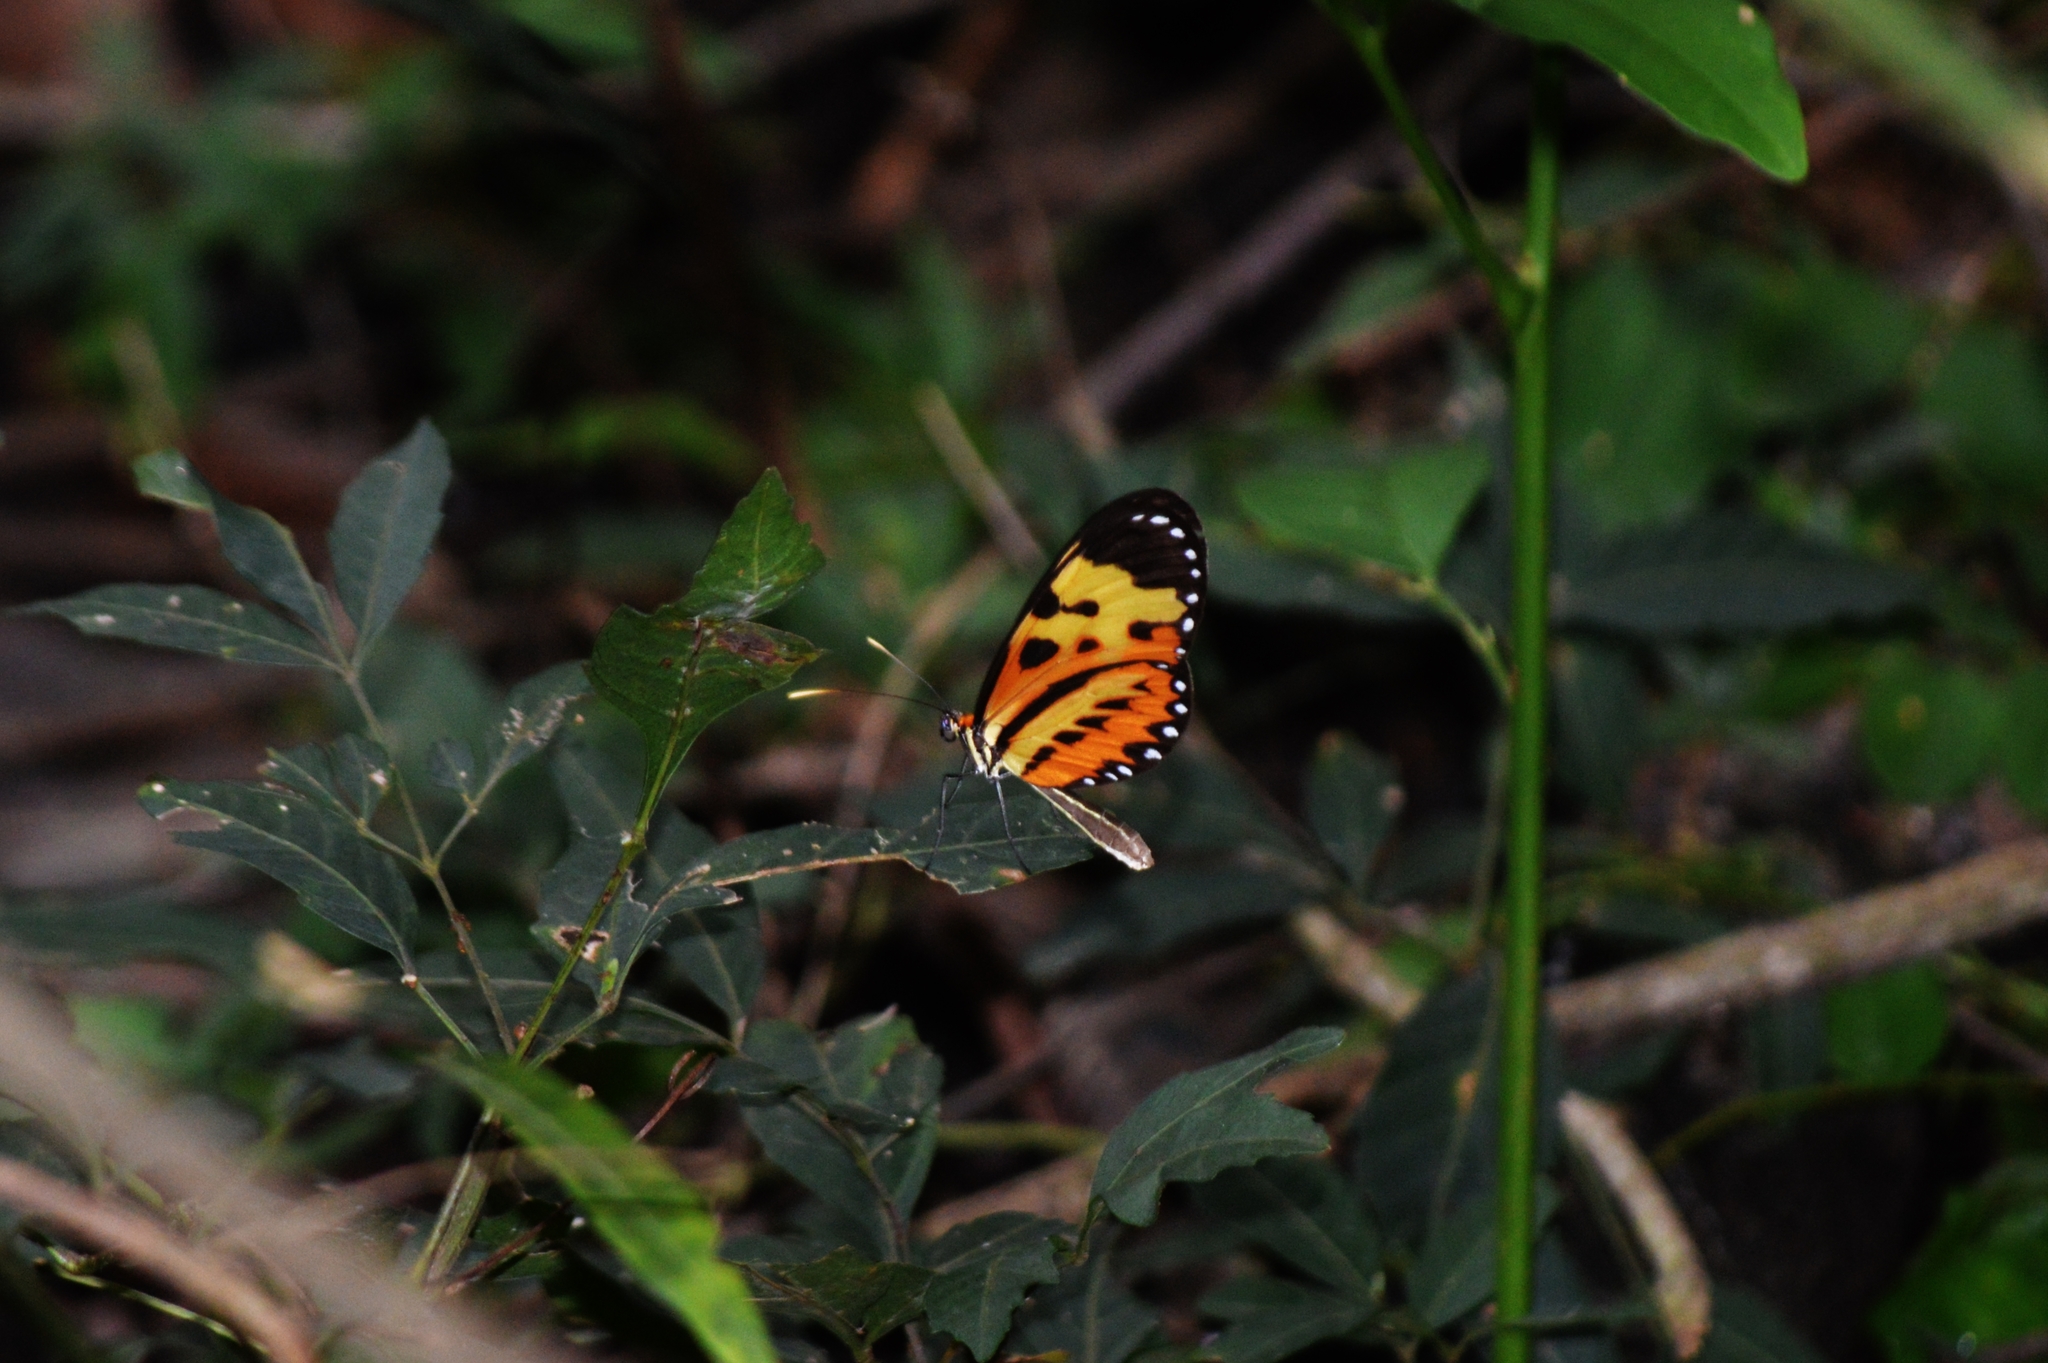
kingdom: Animalia
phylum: Arthropoda
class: Insecta
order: Lepidoptera
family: Nymphalidae
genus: Mechanitis
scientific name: Mechanitis polymnia
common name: Disturbed tigerwing
